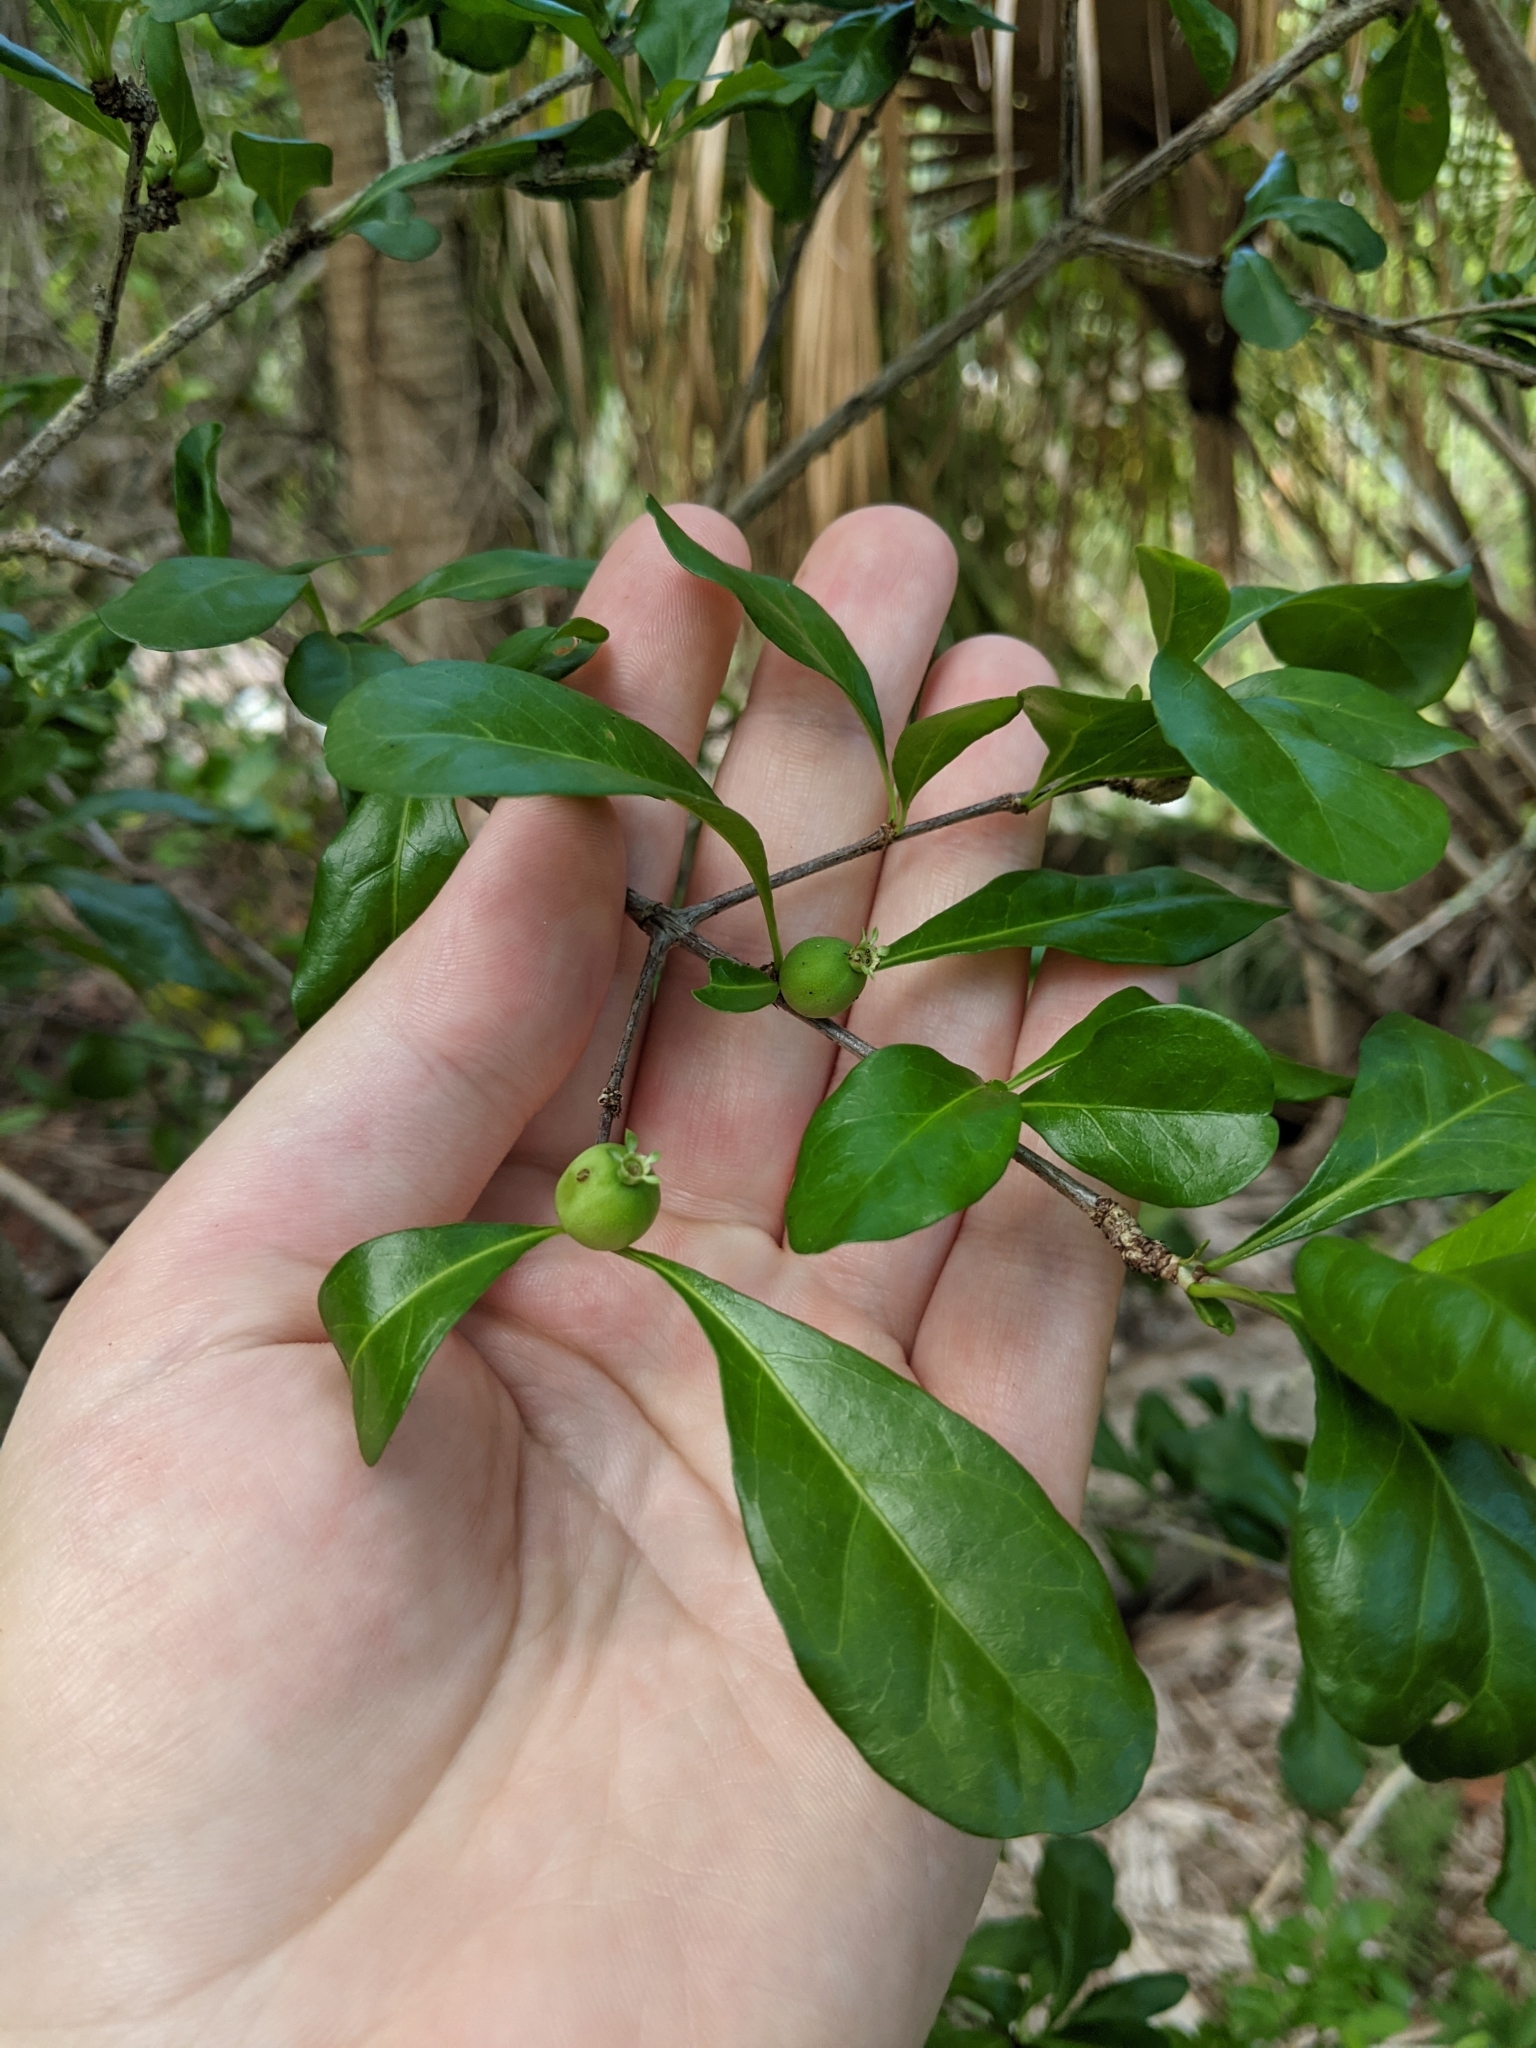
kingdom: Plantae
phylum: Tracheophyta
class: Magnoliopsida
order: Gentianales
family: Rubiaceae
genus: Randia
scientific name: Randia aculeata
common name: Inkberry
